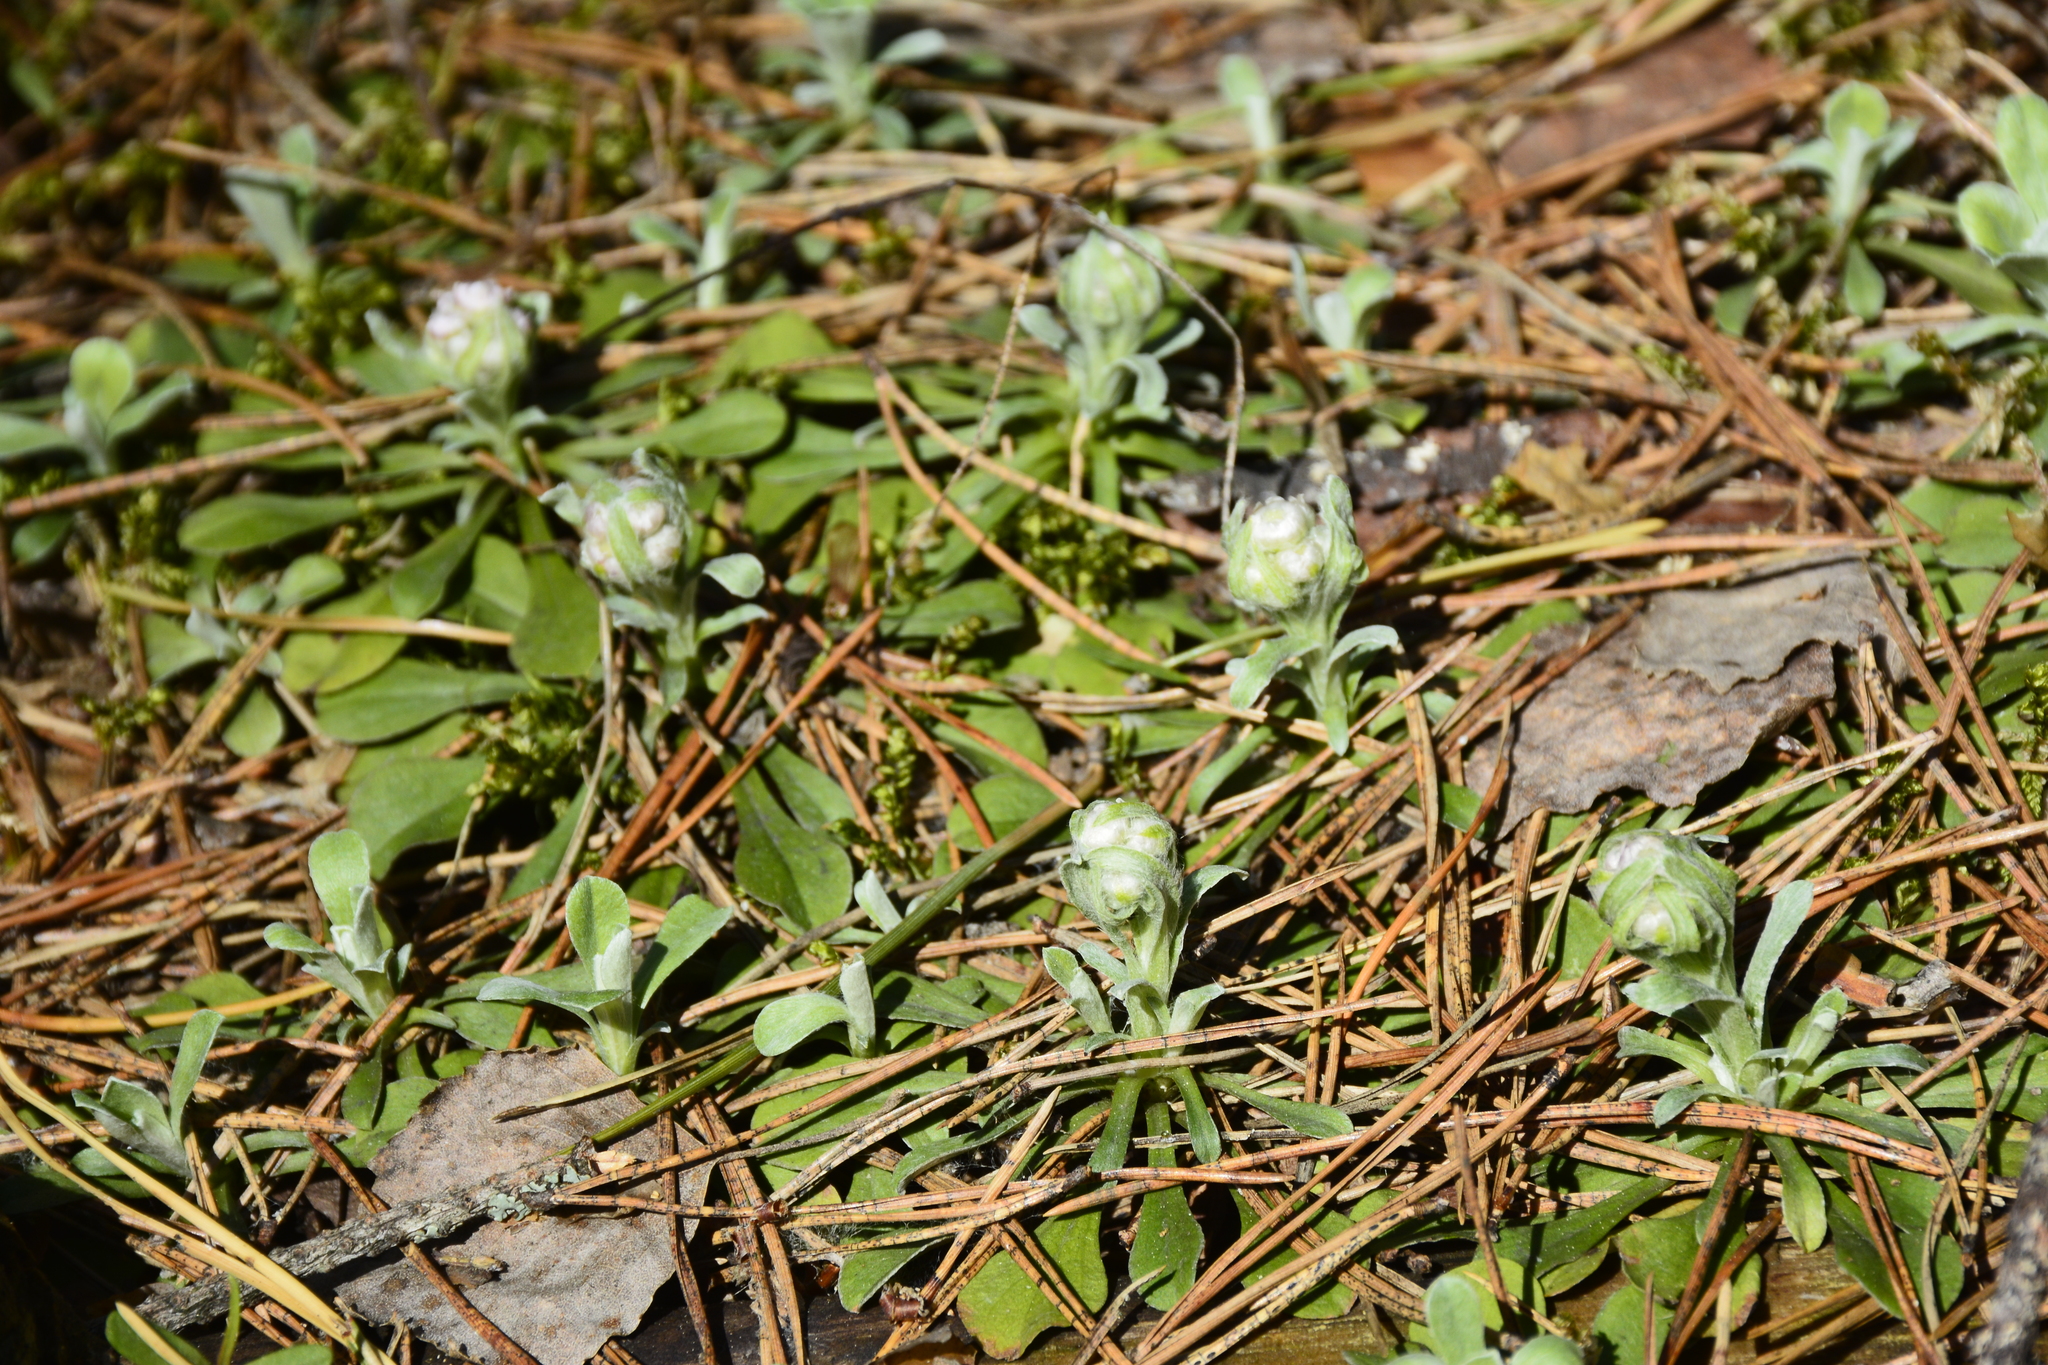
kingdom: Plantae
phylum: Tracheophyta
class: Magnoliopsida
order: Asterales
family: Asteraceae
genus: Antennaria
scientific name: Antennaria dioica
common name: Mountain everlasting
